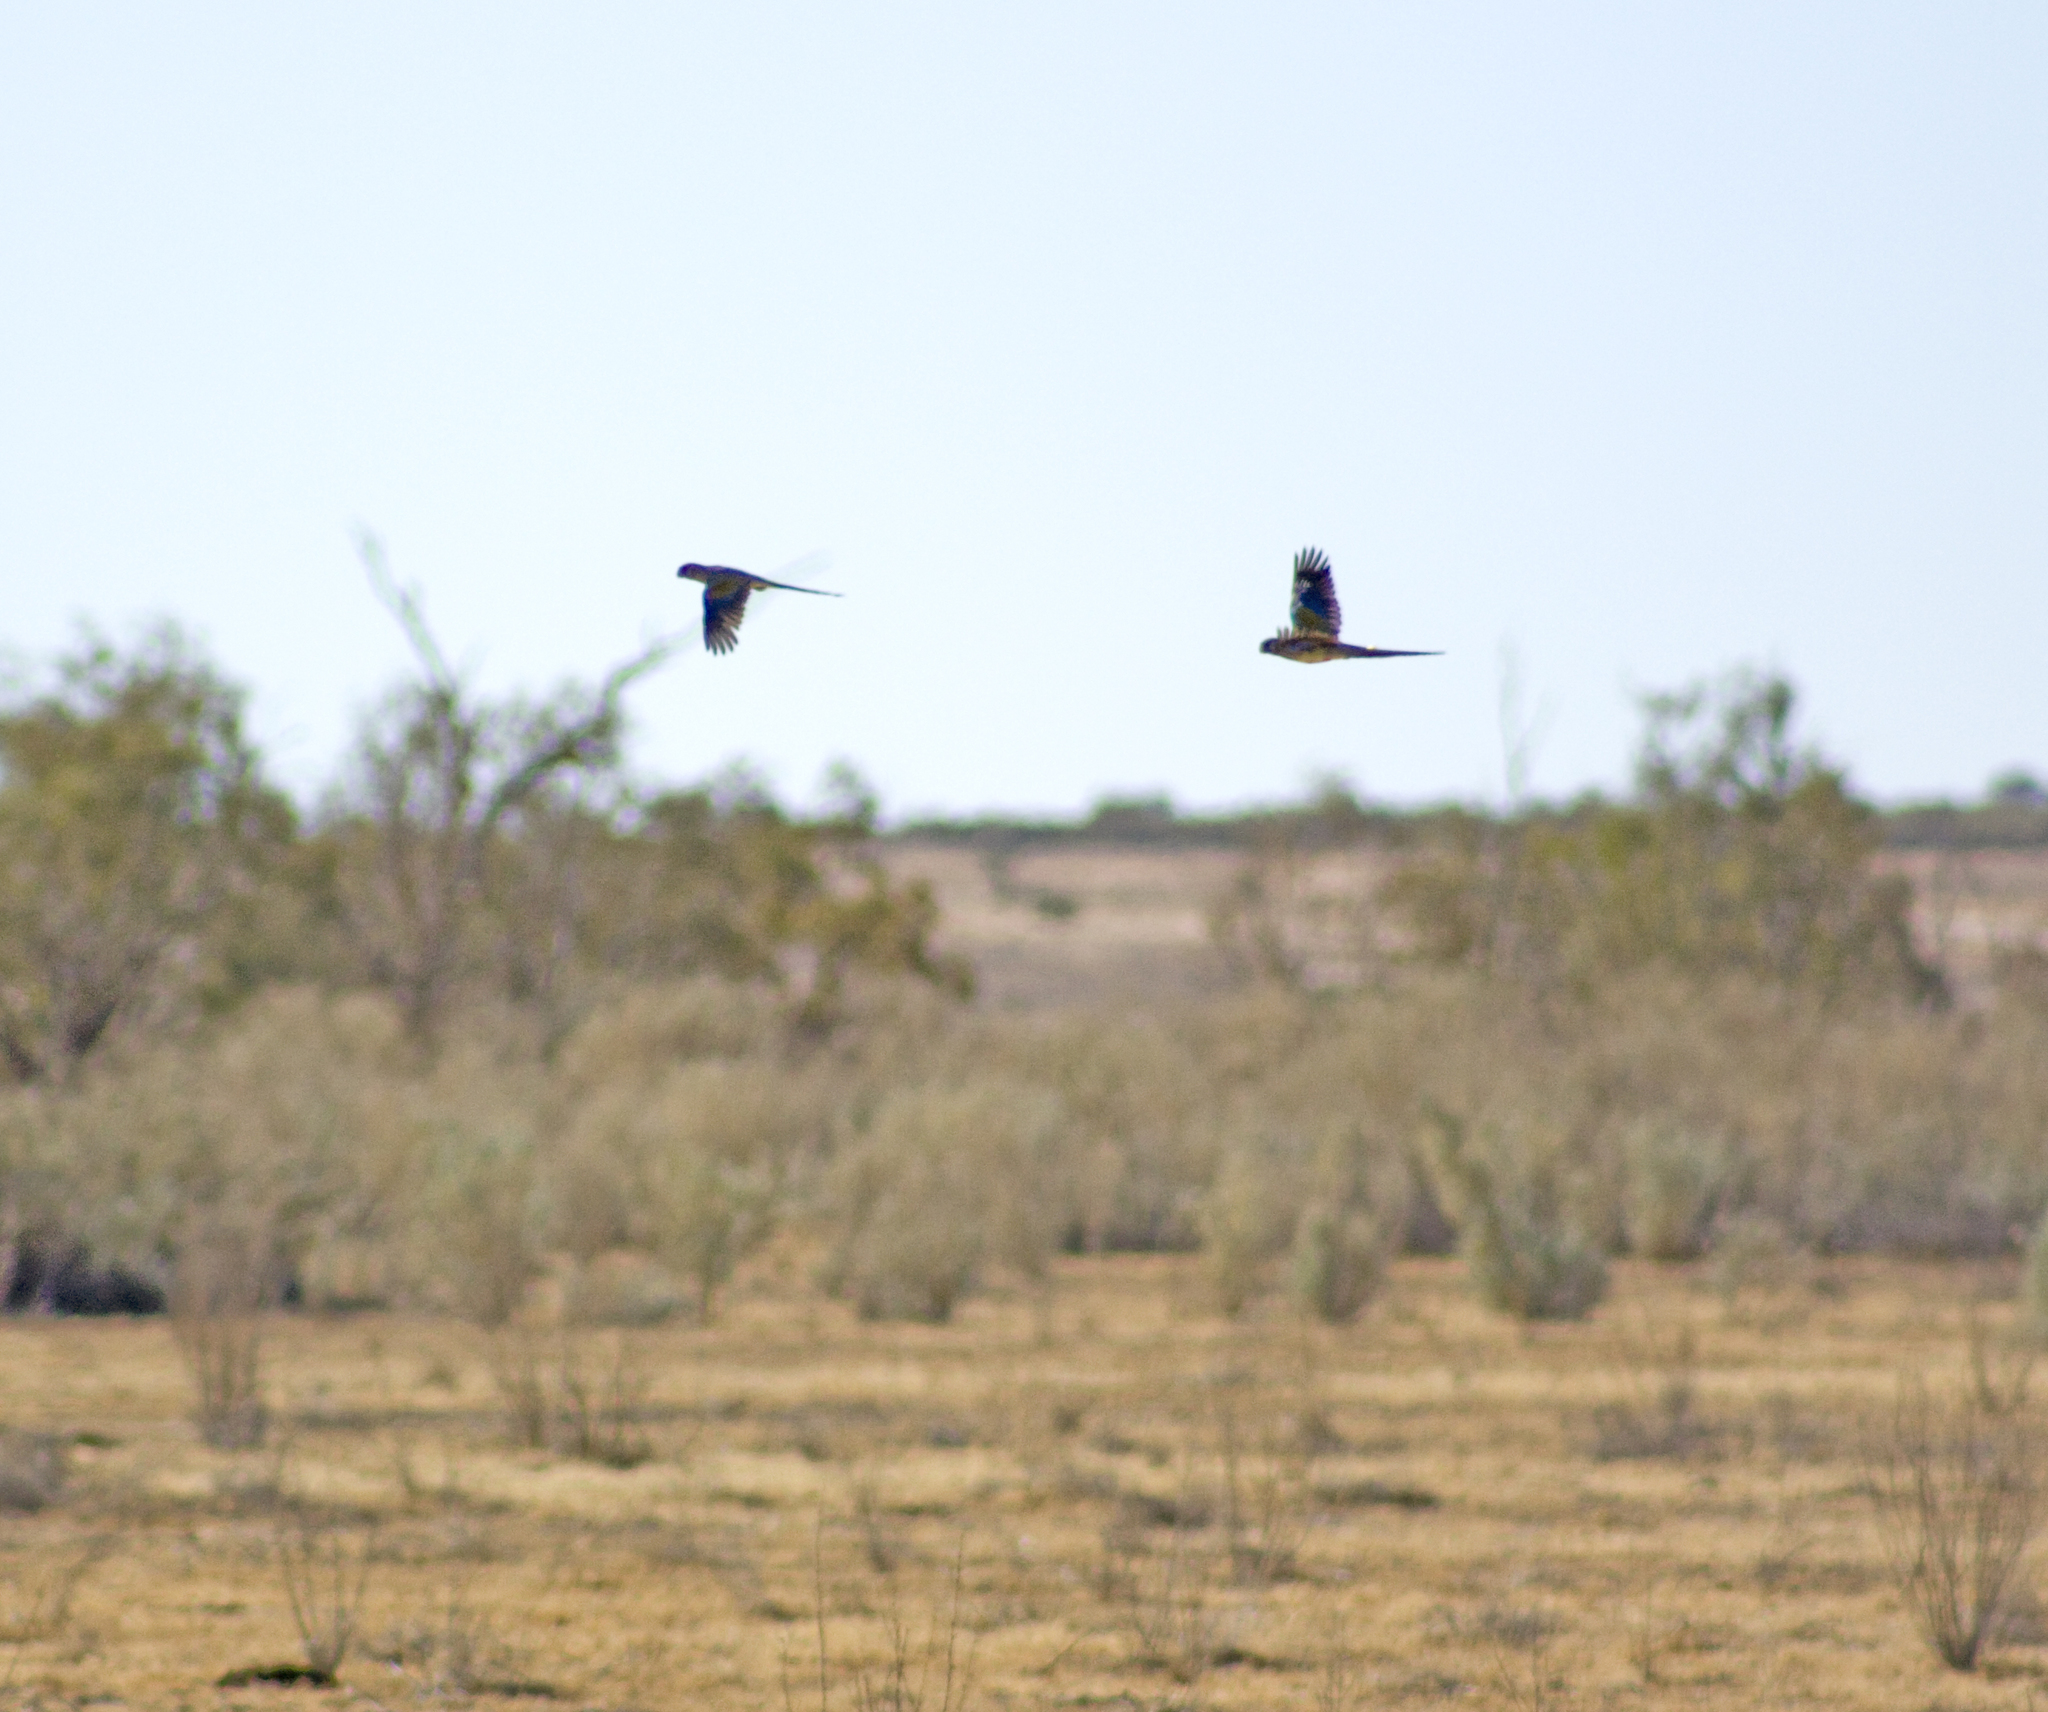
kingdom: Animalia
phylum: Chordata
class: Aves
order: Psittaciformes
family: Psittacidae
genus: Northiella
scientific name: Northiella haematogaster
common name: Bluebonnet
